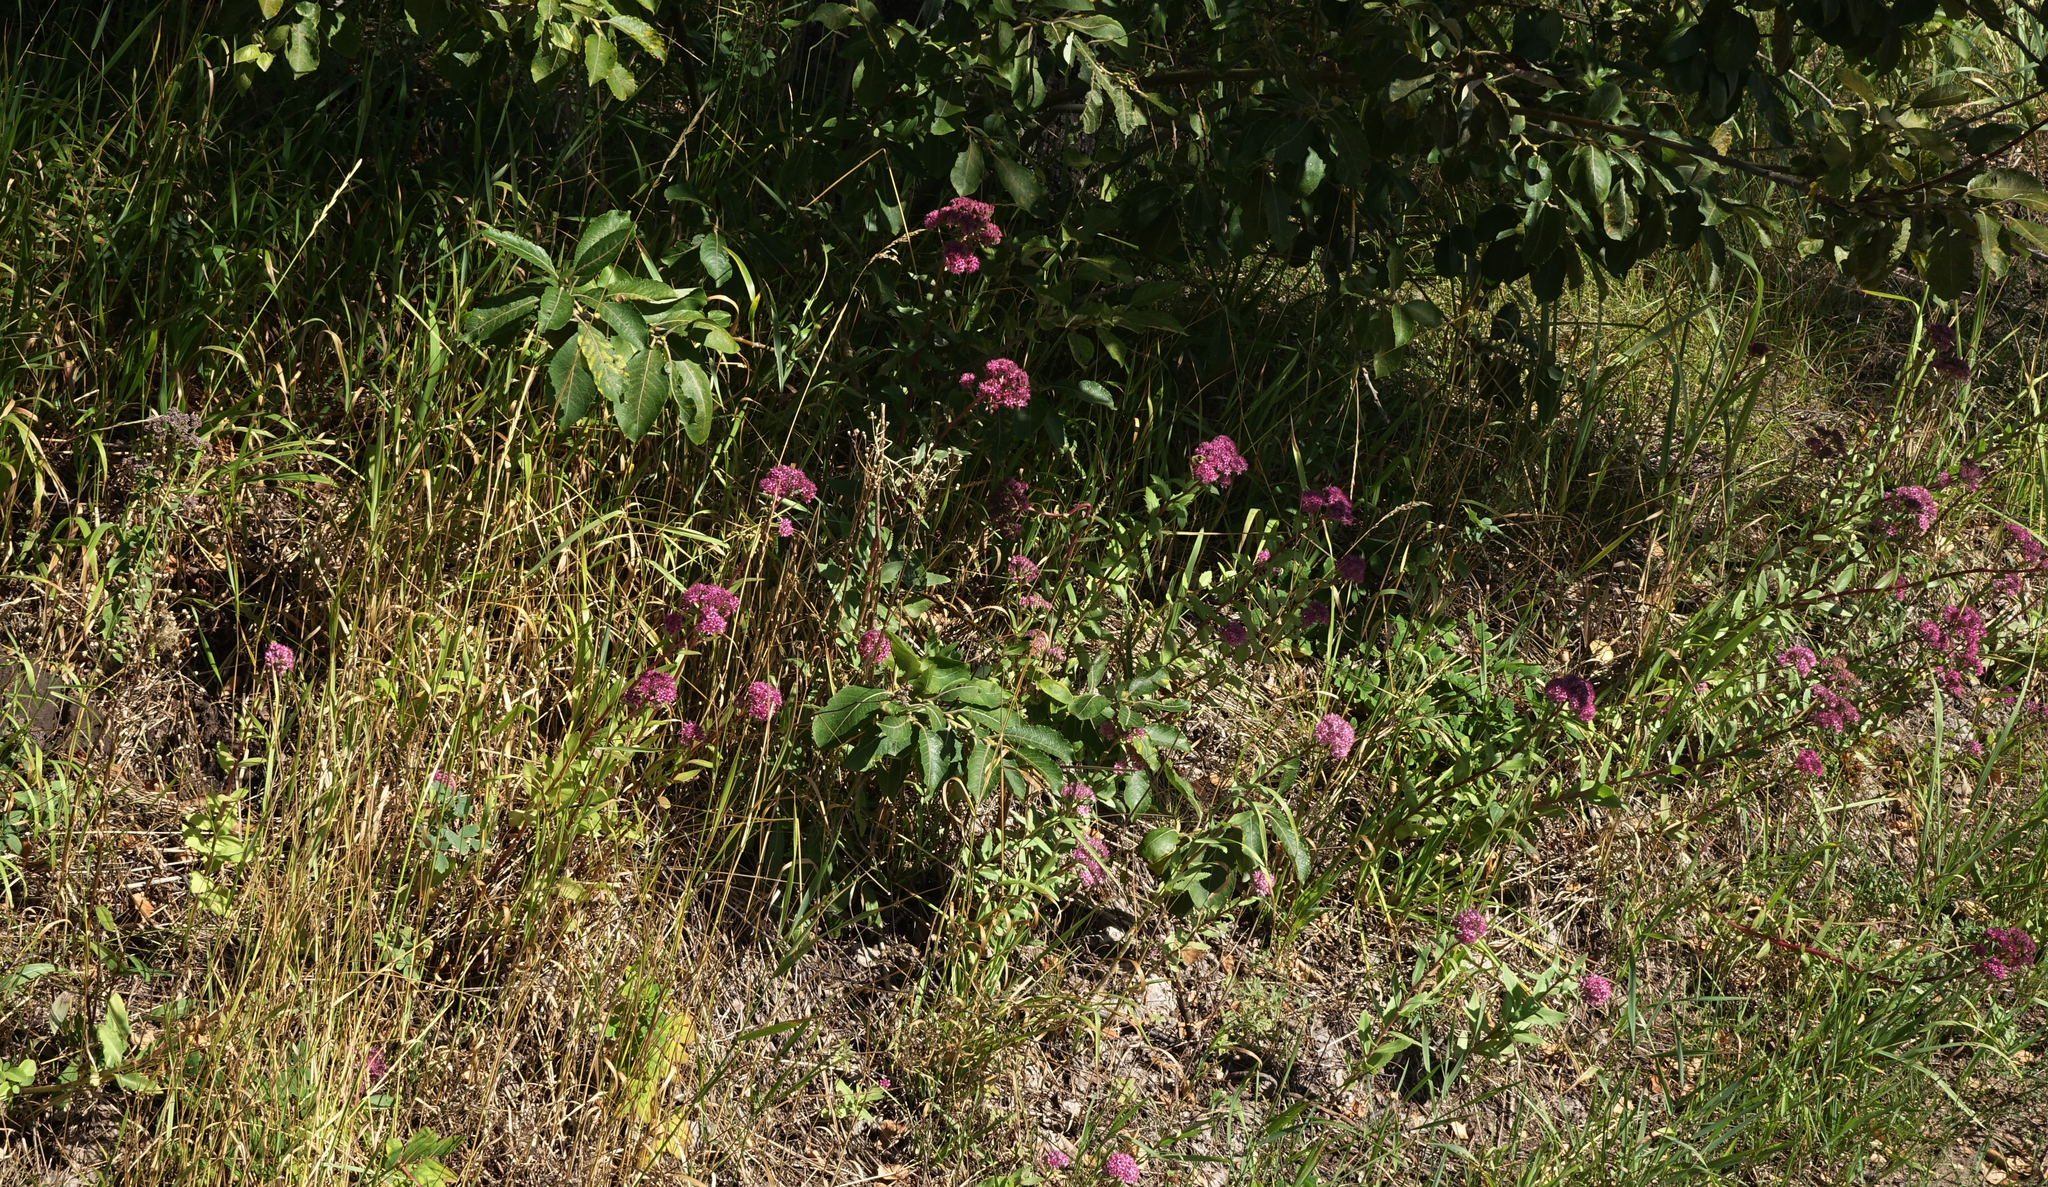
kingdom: Plantae
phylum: Tracheophyta
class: Magnoliopsida
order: Saxifragales
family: Crassulaceae
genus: Hylotelephium
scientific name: Hylotelephium telephium
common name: Live-forever
